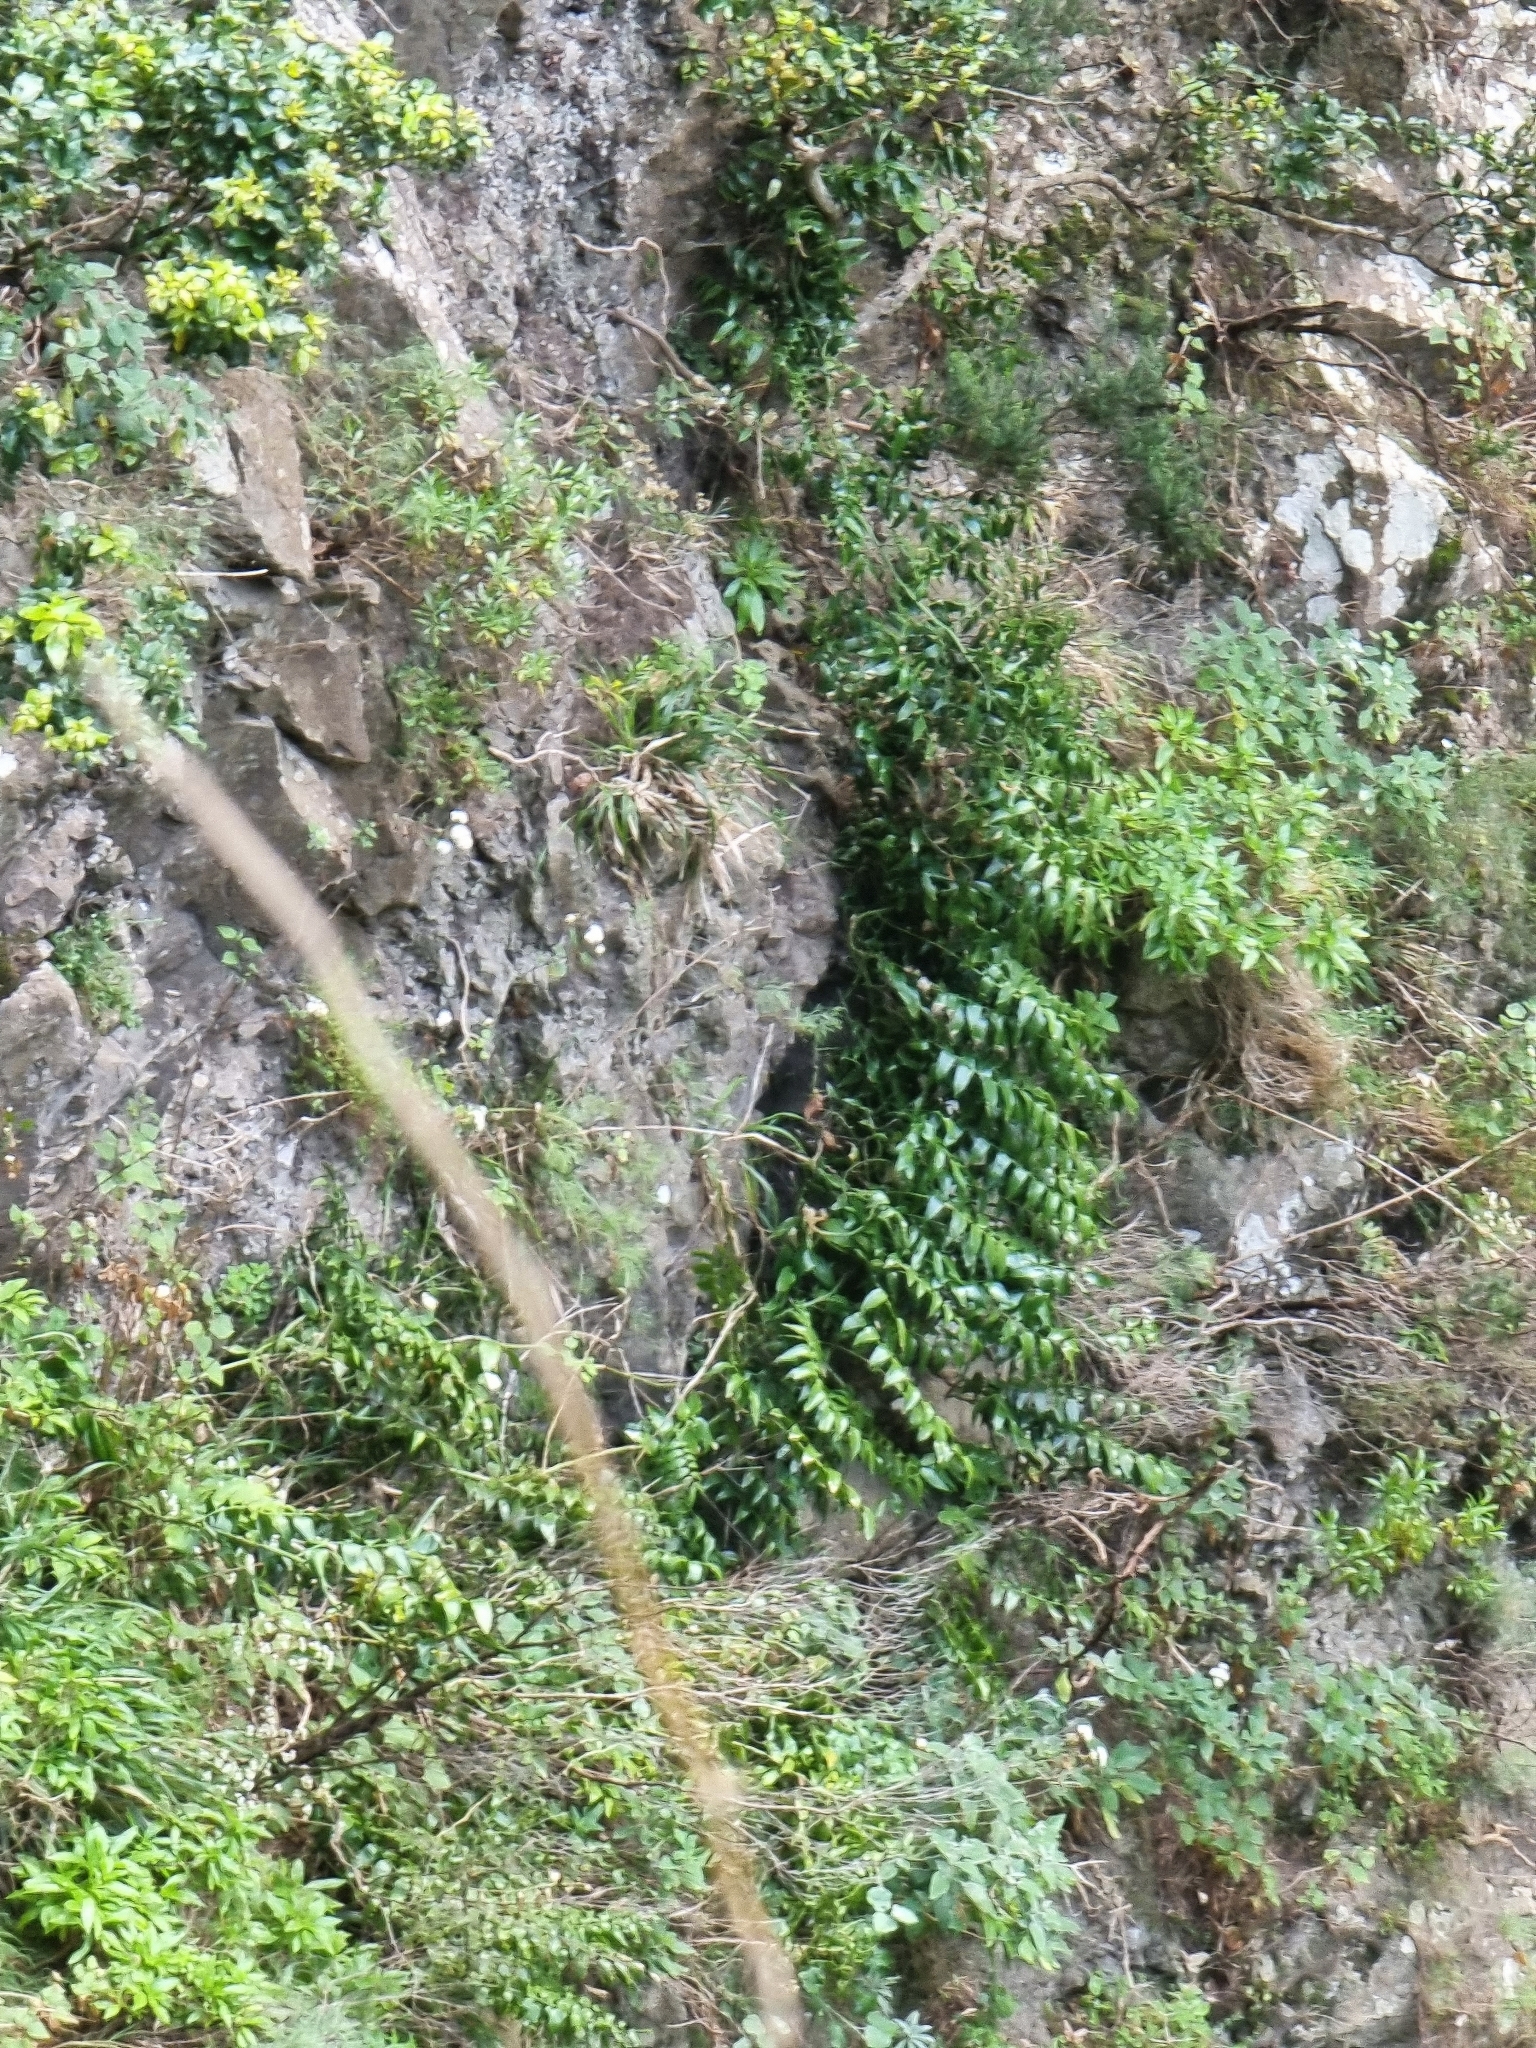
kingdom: Plantae
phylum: Tracheophyta
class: Liliopsida
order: Asparagales
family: Asparagaceae
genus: Semele
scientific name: Semele androgyna
